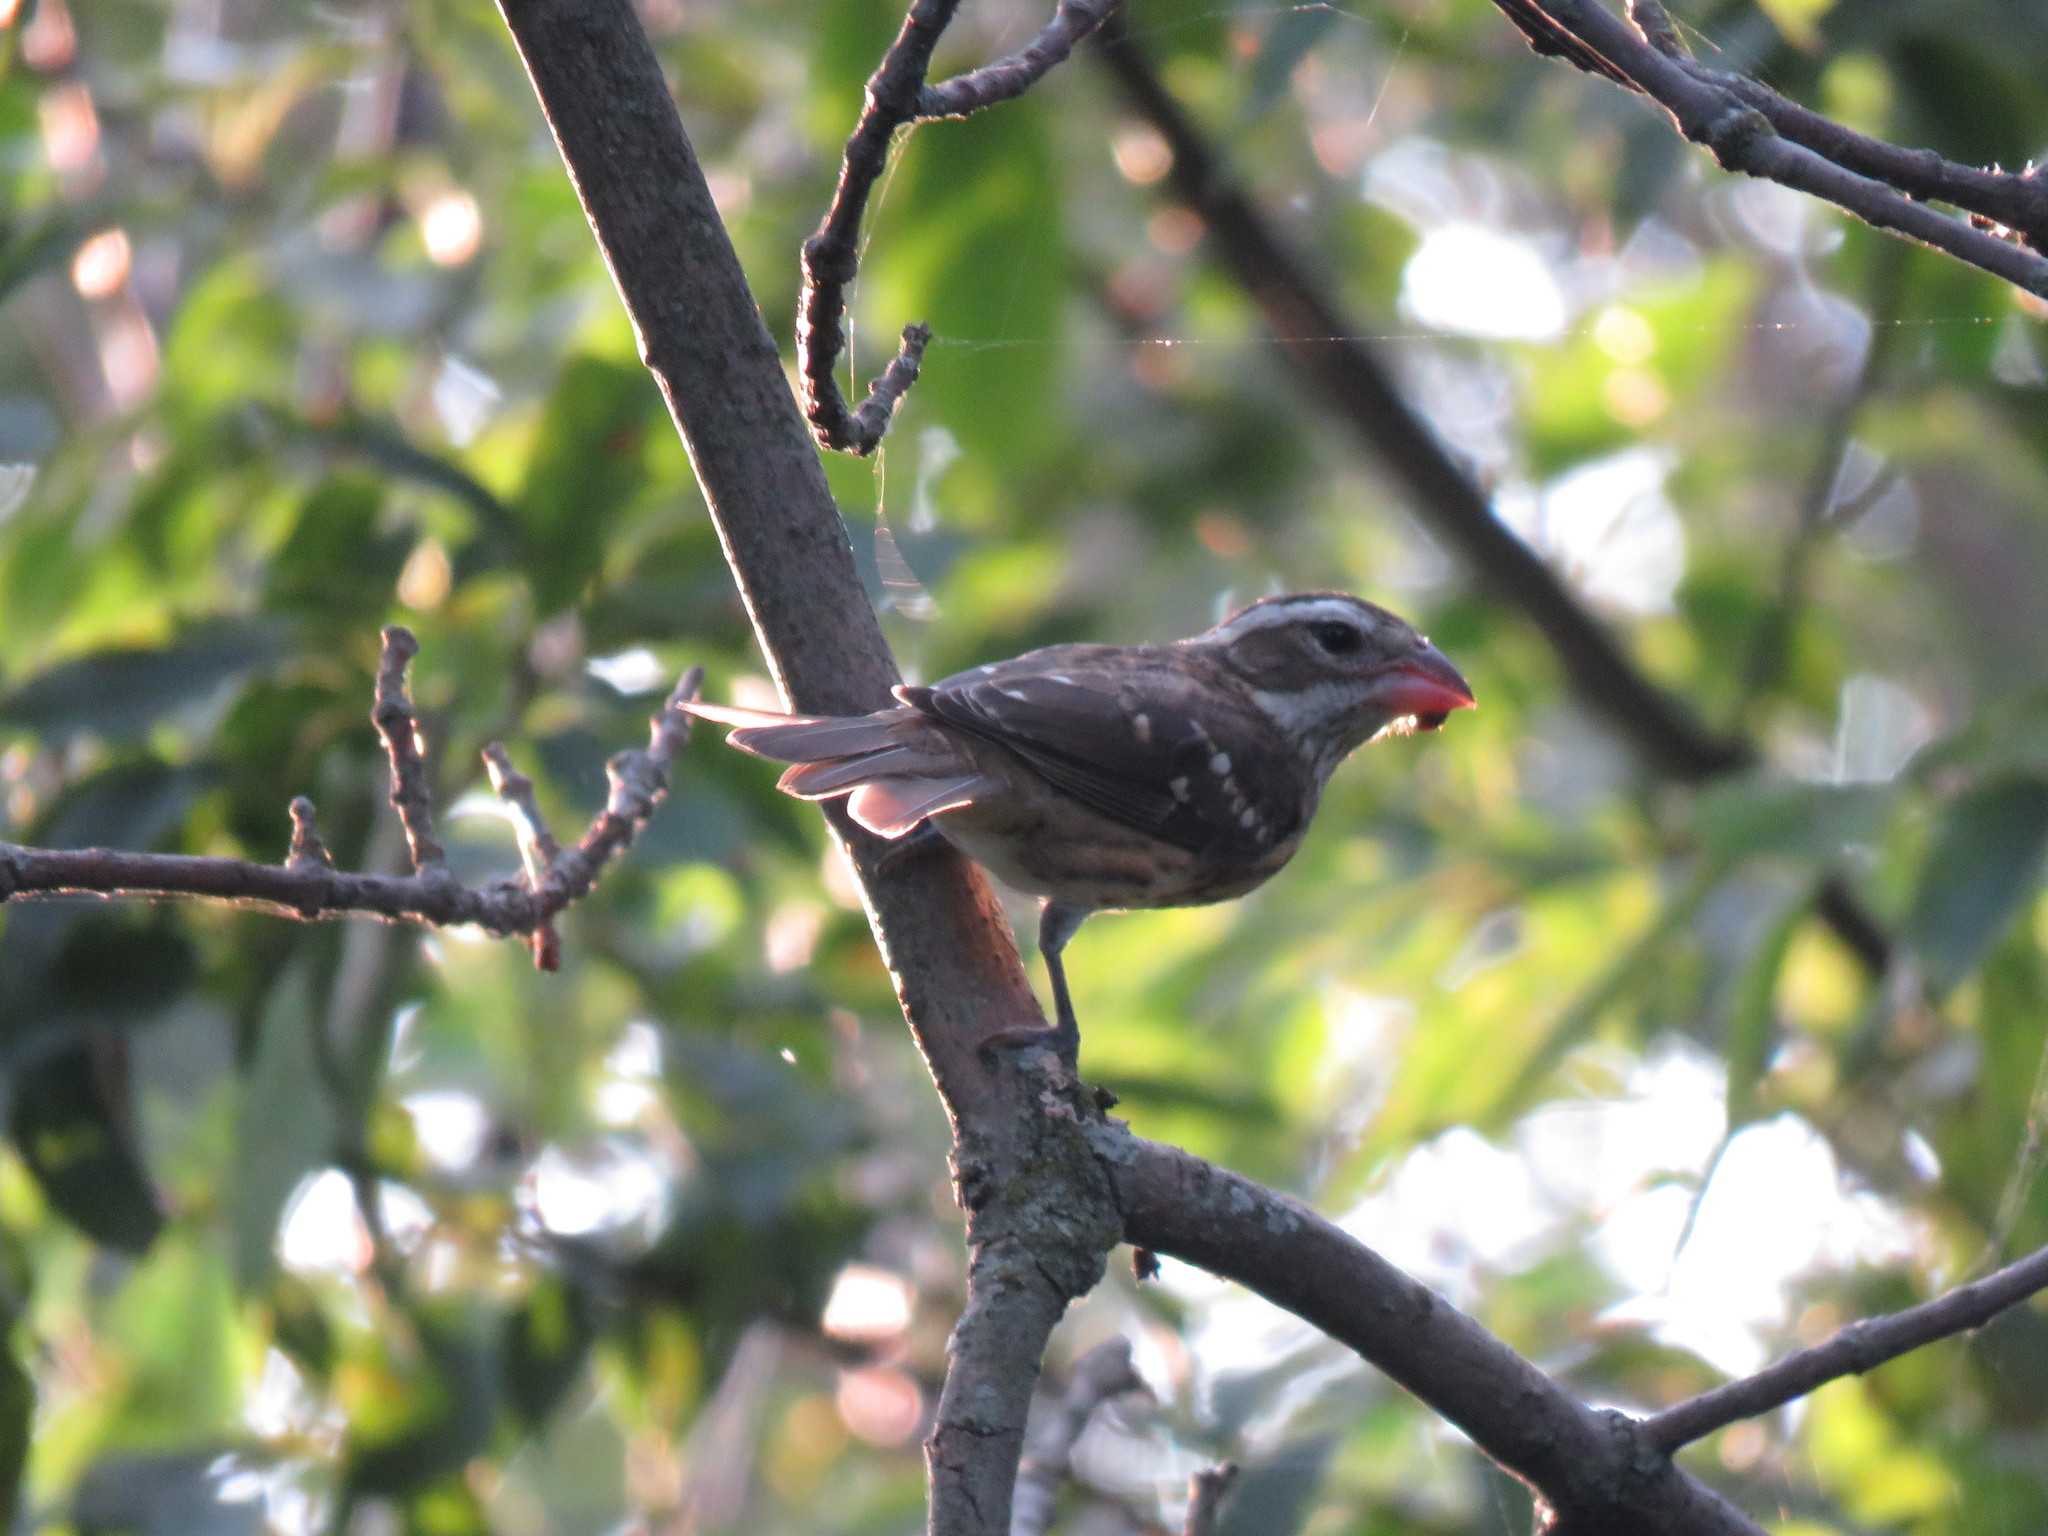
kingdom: Animalia
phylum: Chordata
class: Aves
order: Passeriformes
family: Cardinalidae
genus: Pheucticus
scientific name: Pheucticus ludovicianus
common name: Rose-breasted grosbeak
